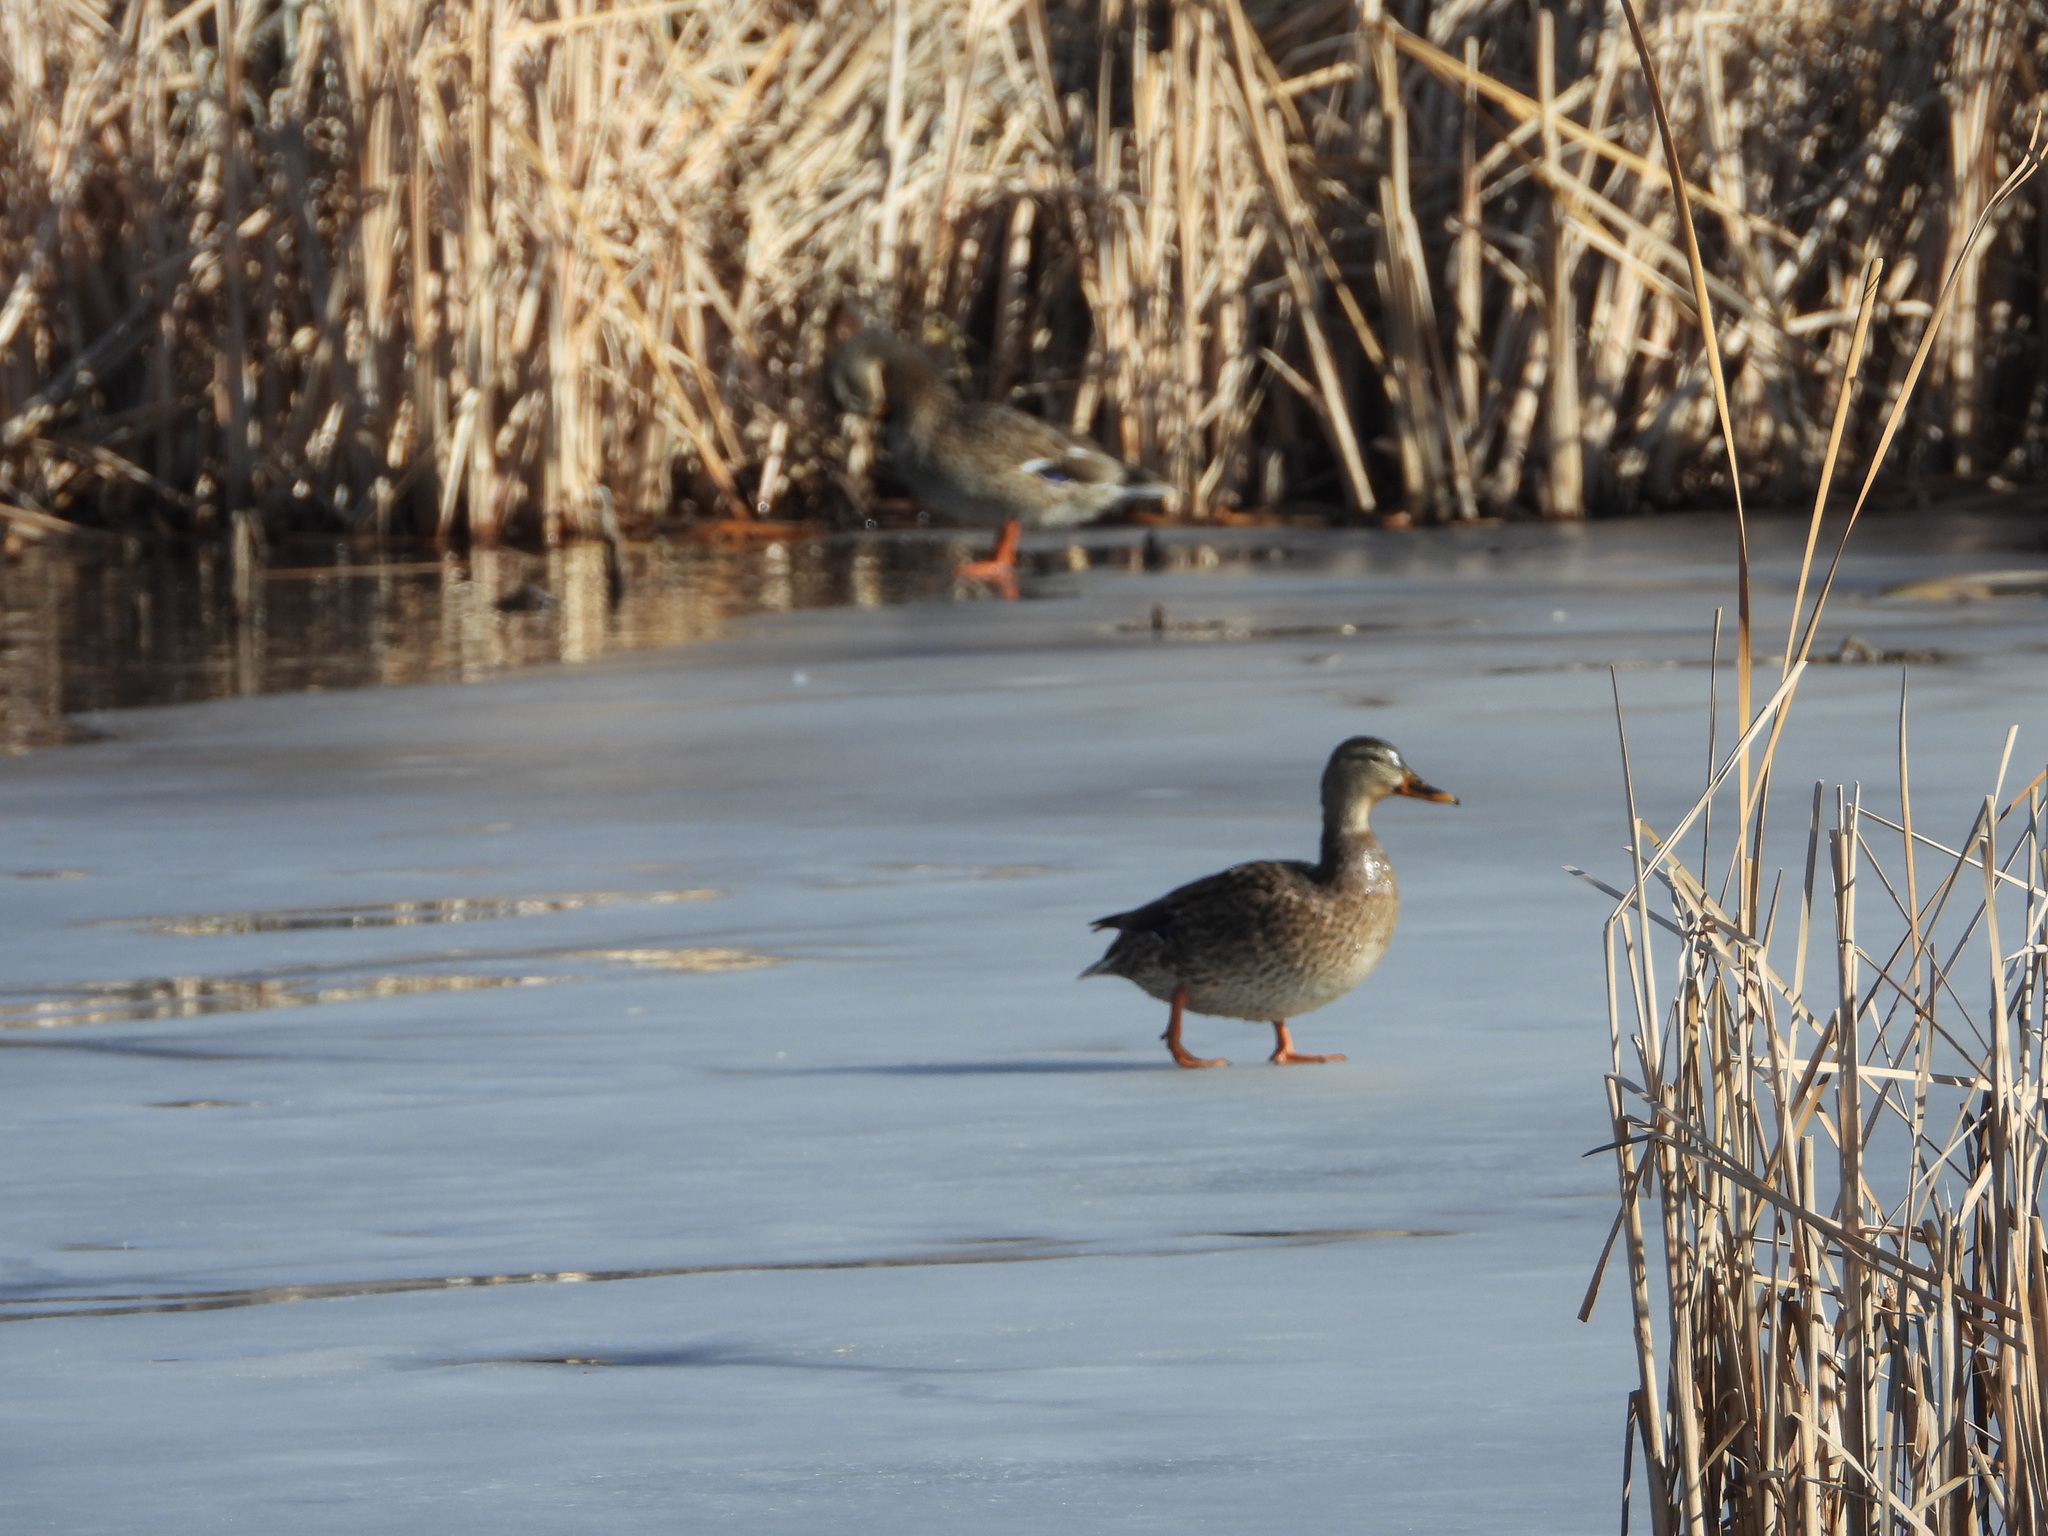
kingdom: Animalia
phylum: Chordata
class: Aves
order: Anseriformes
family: Anatidae
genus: Anas
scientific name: Anas platyrhynchos
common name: Mallard
